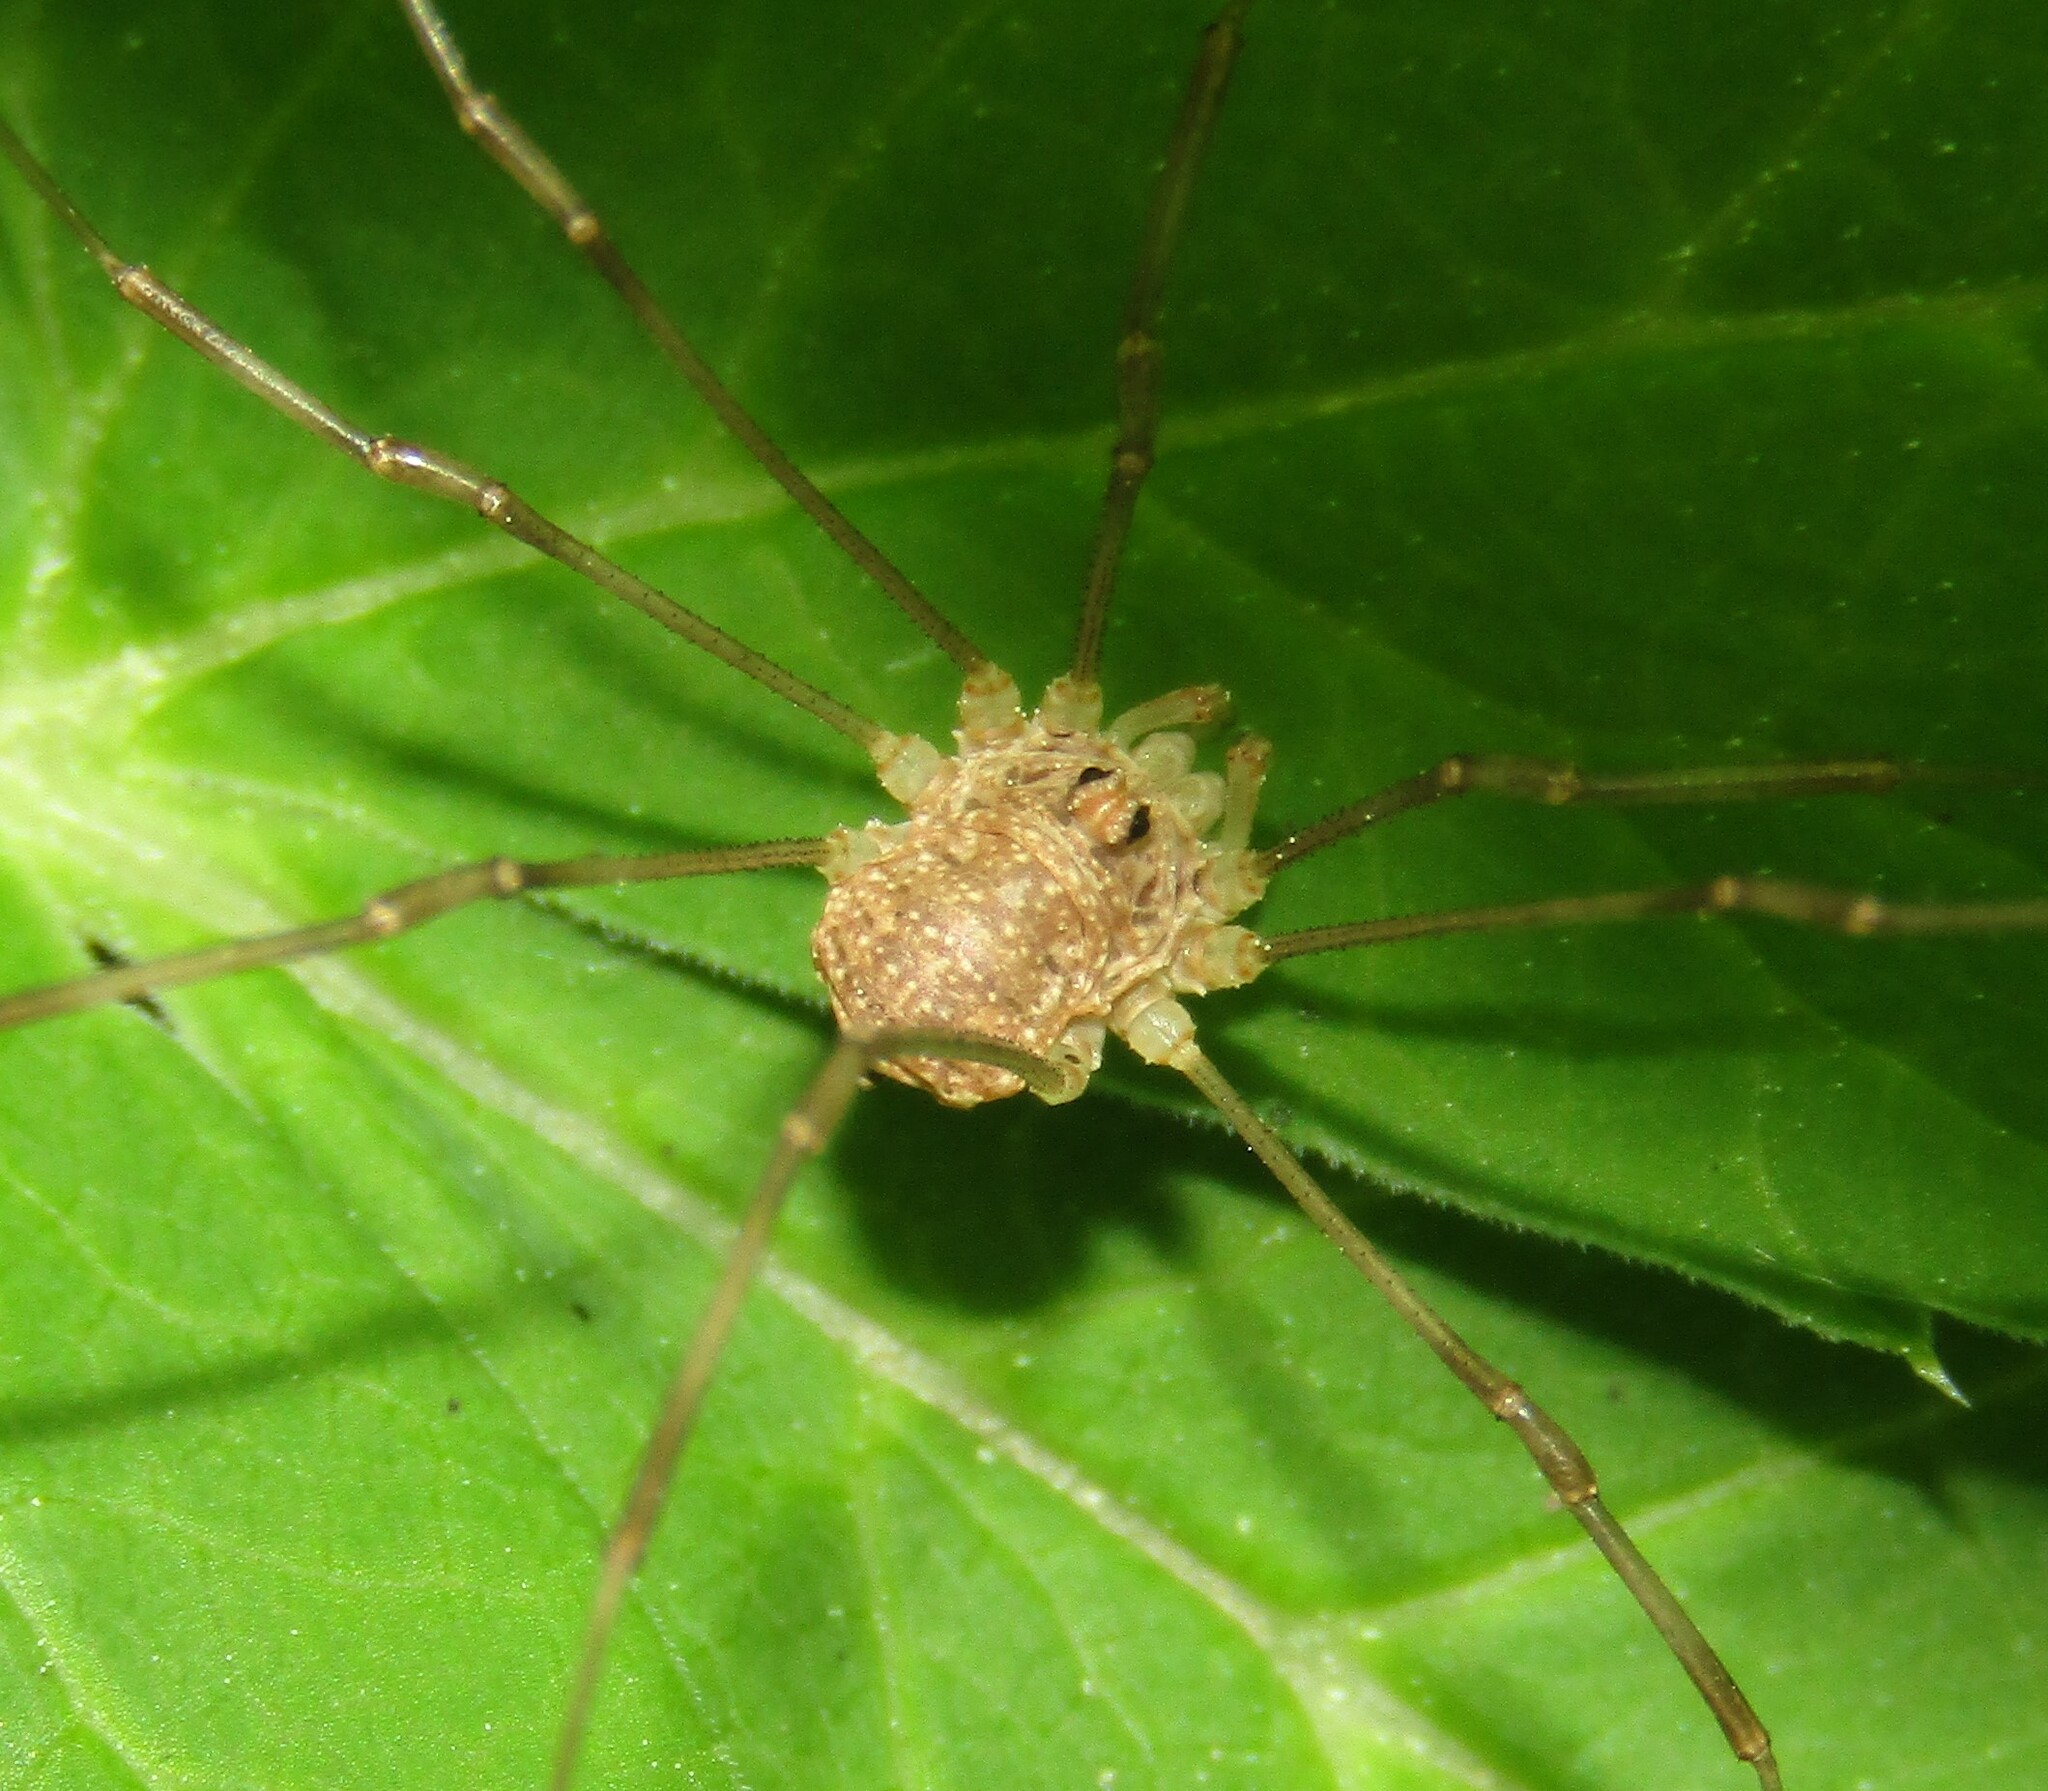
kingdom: Animalia
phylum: Arthropoda
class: Arachnida
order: Opiliones
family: Phalangiidae
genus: Rilaena
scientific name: Rilaena triangularis
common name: Spring harvestman
